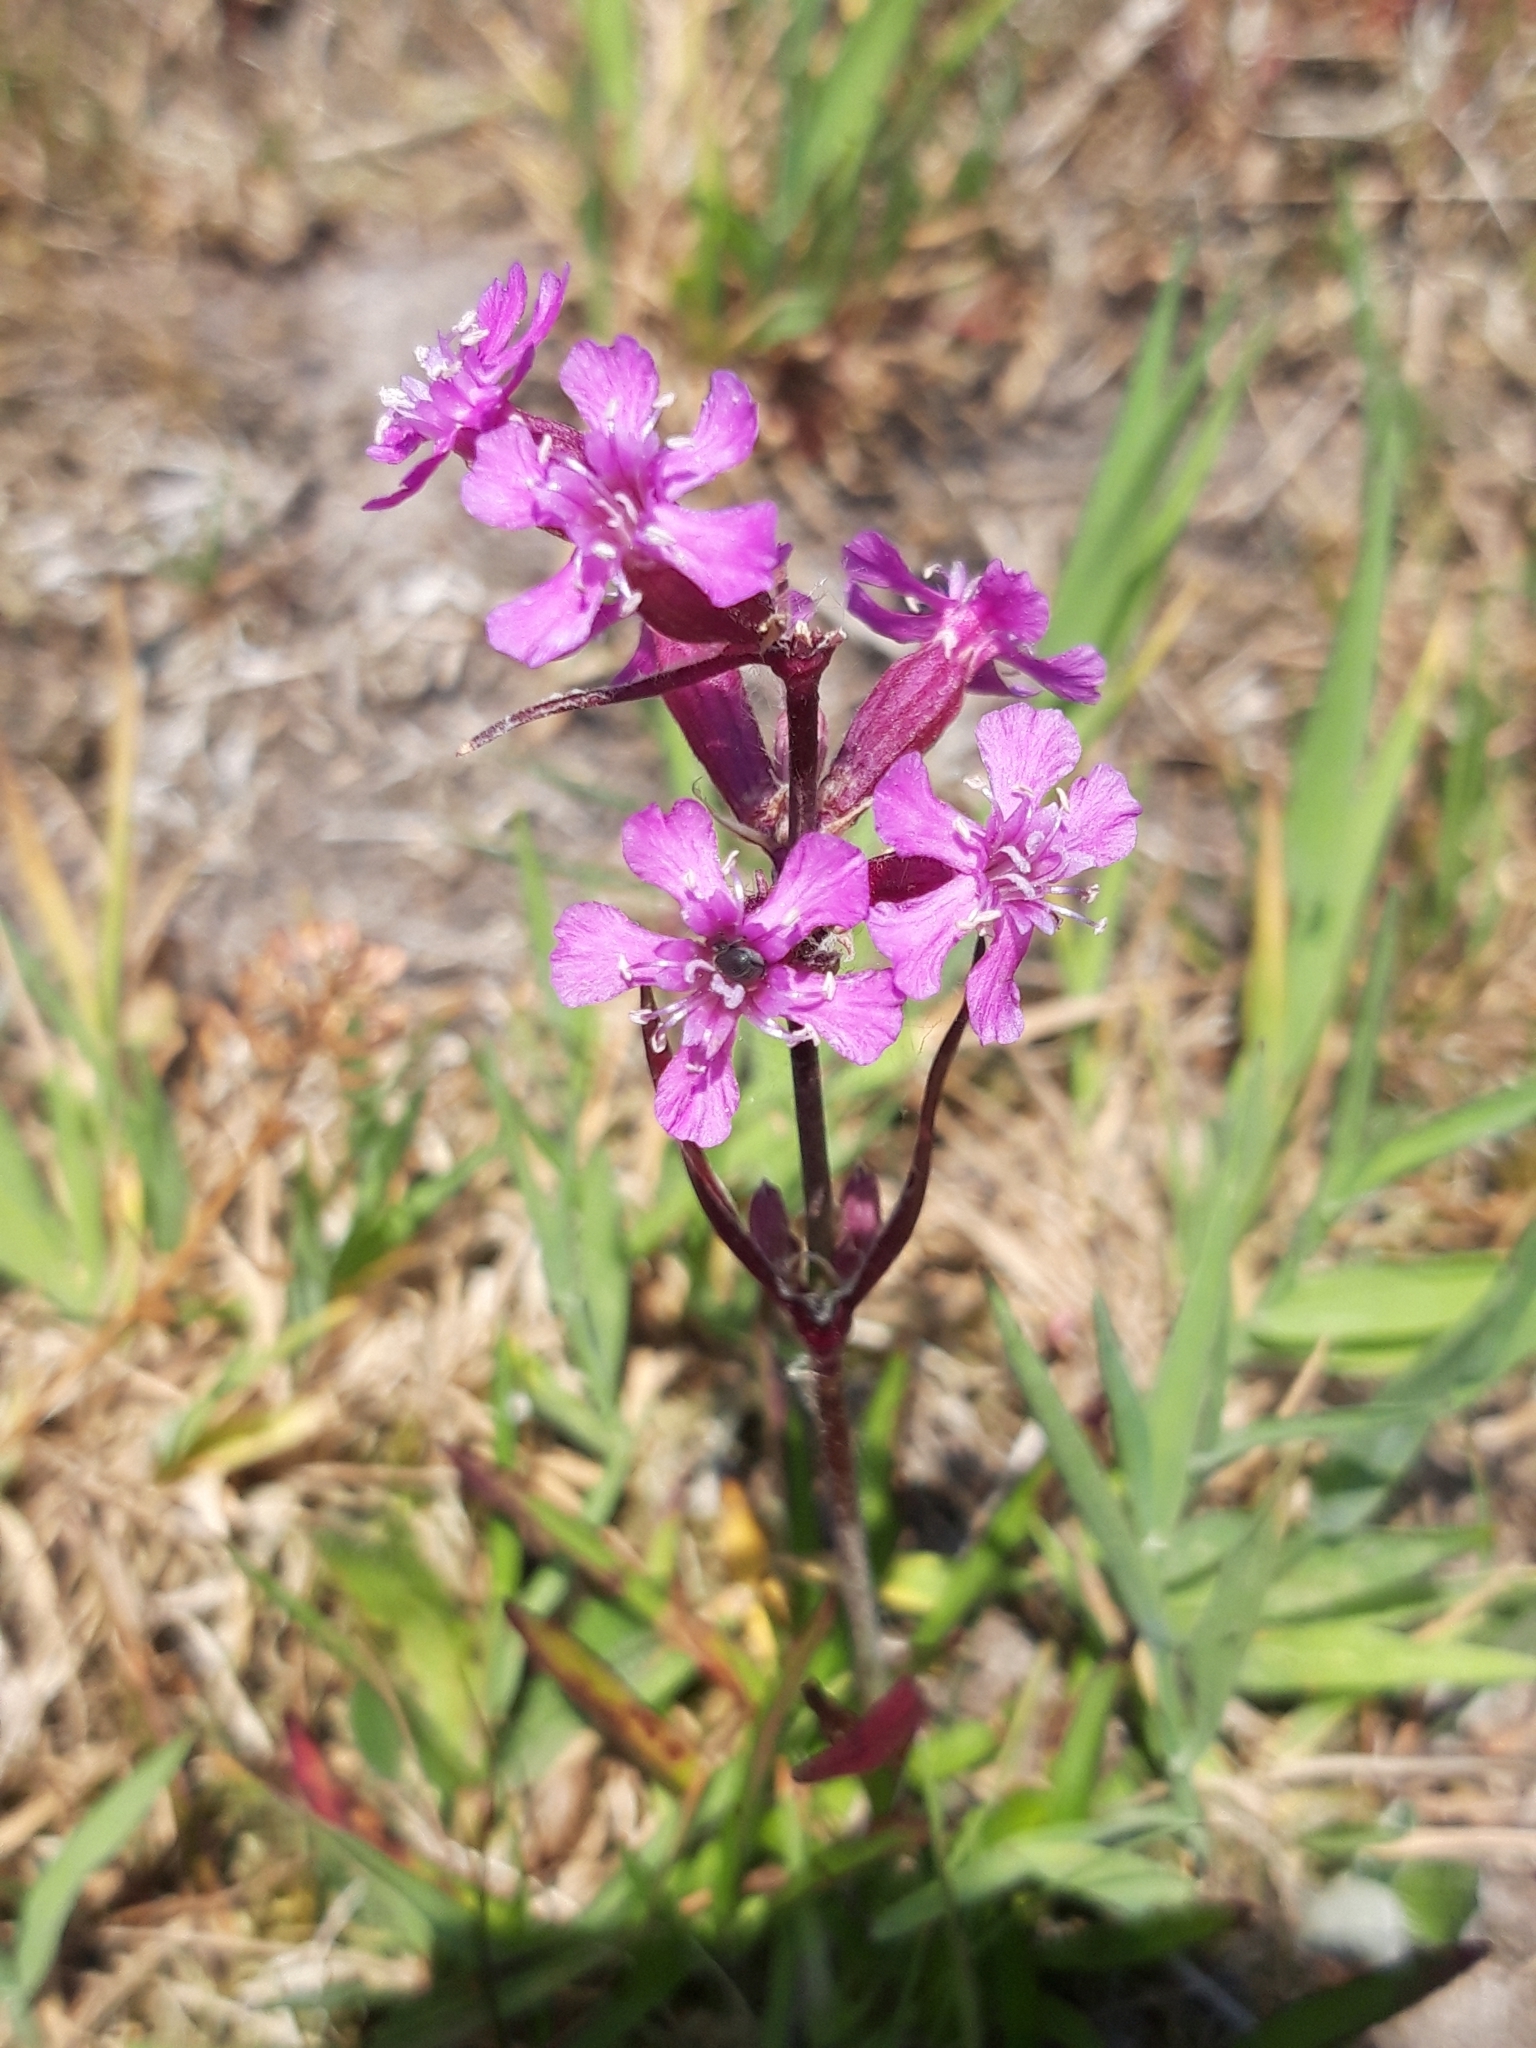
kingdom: Plantae
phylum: Tracheophyta
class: Magnoliopsida
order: Caryophyllales
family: Caryophyllaceae
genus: Viscaria
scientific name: Viscaria vulgaris
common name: Clammy campion
